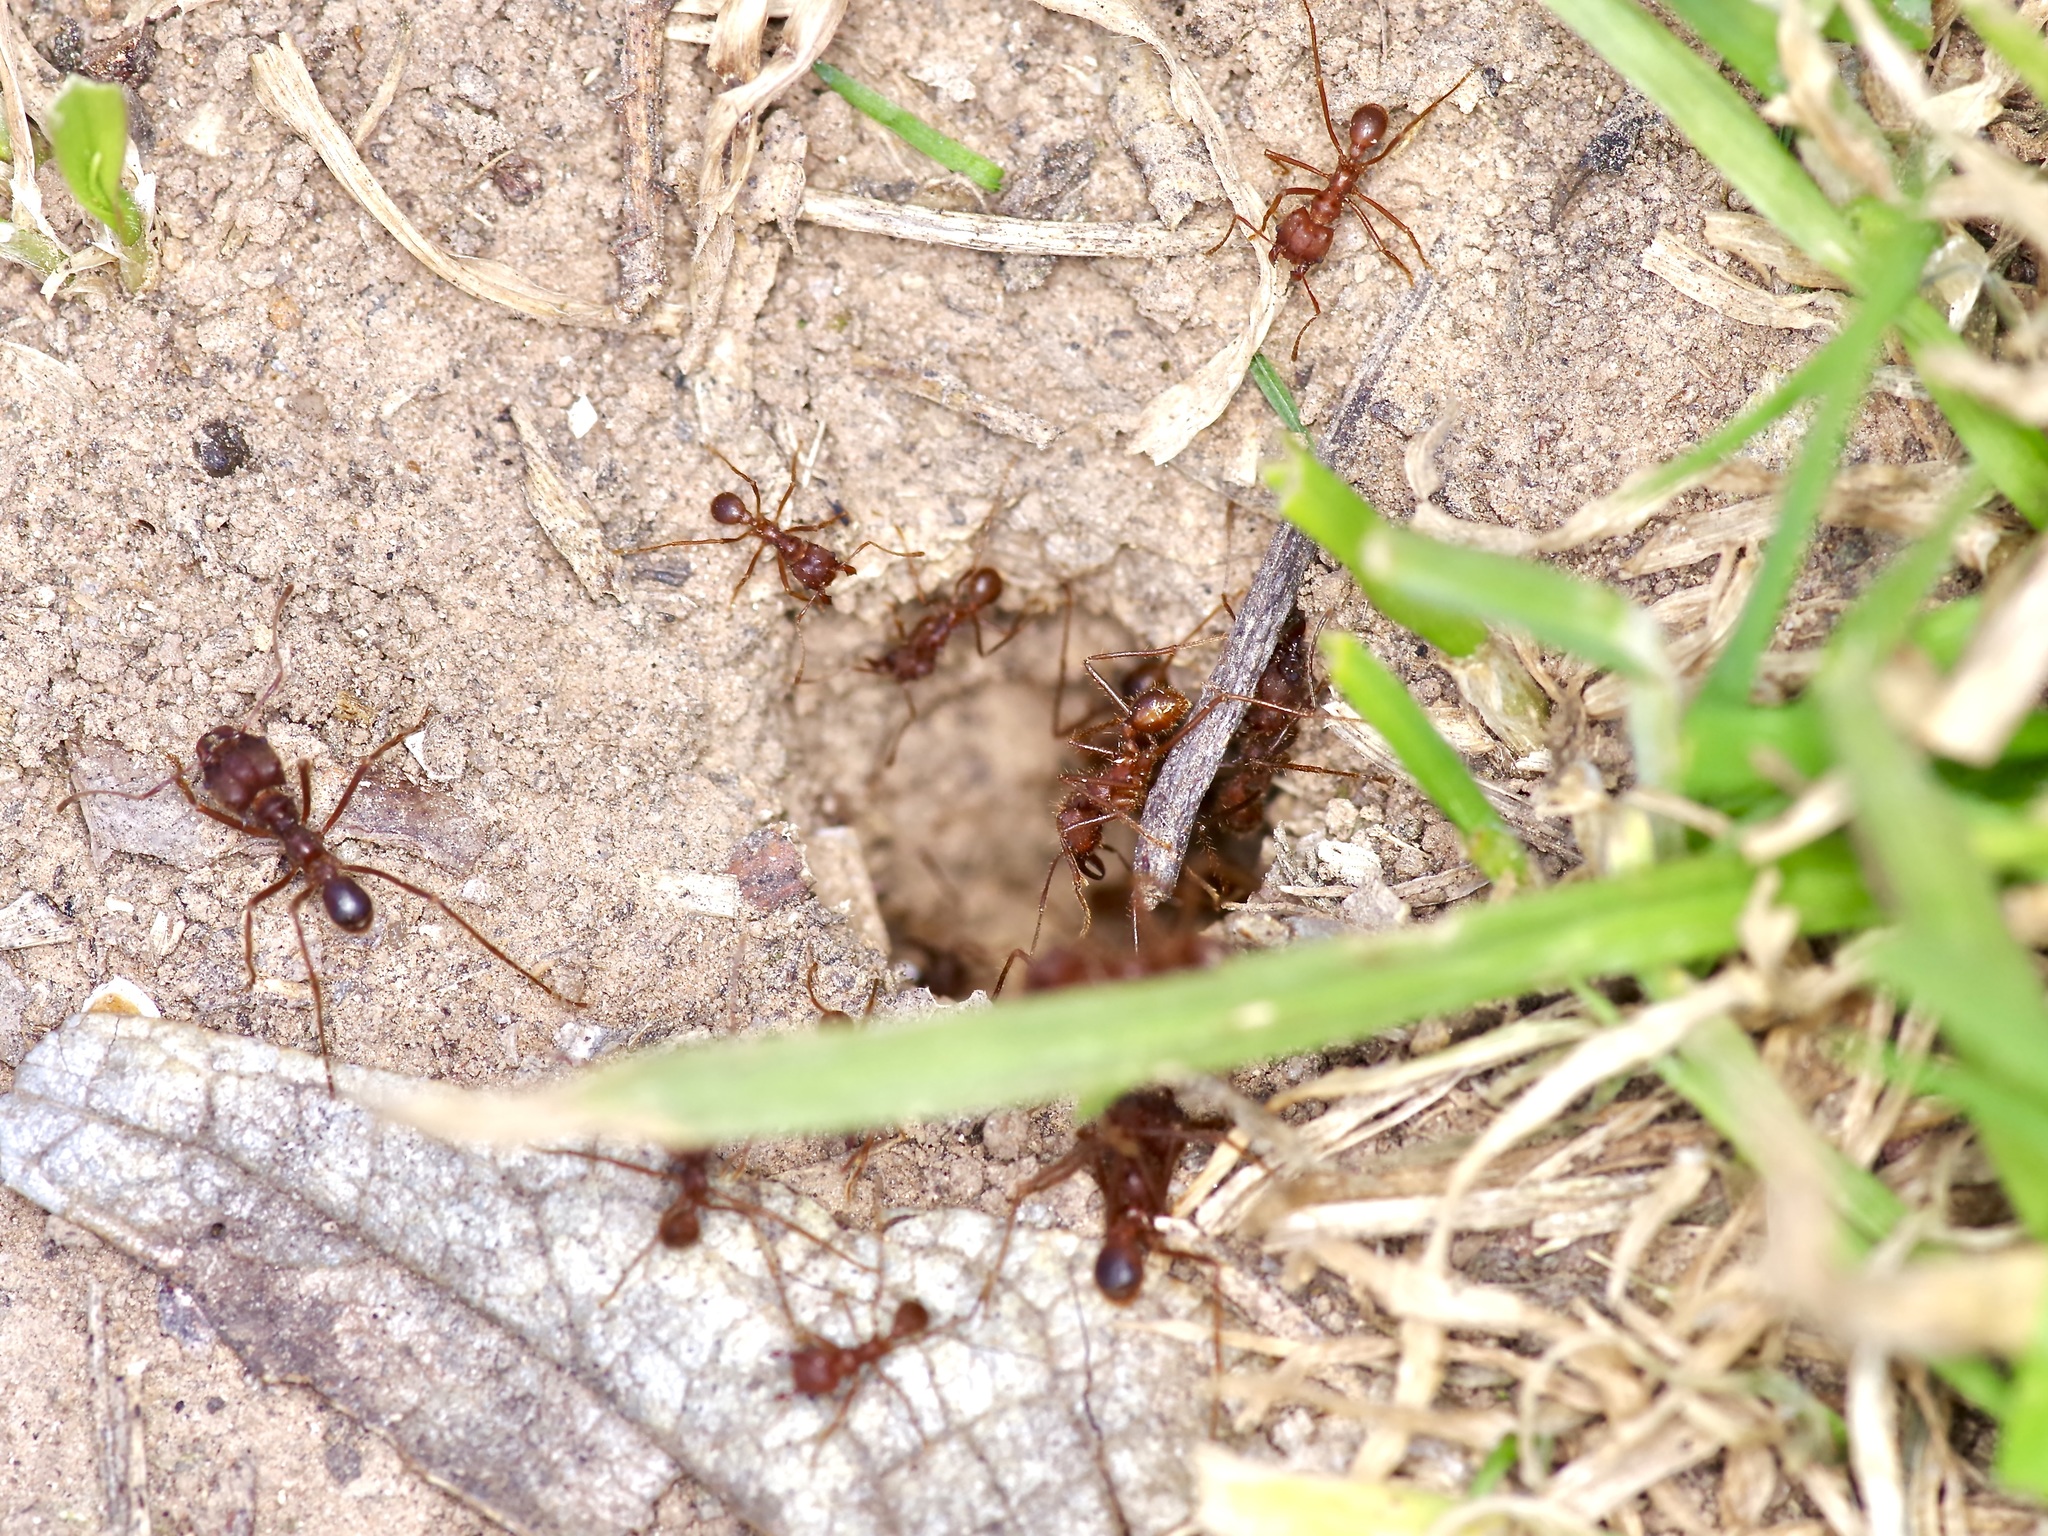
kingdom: Animalia
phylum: Arthropoda
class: Insecta
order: Hymenoptera
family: Formicidae
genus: Atta
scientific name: Atta texana
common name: Texas leafcutting ant
